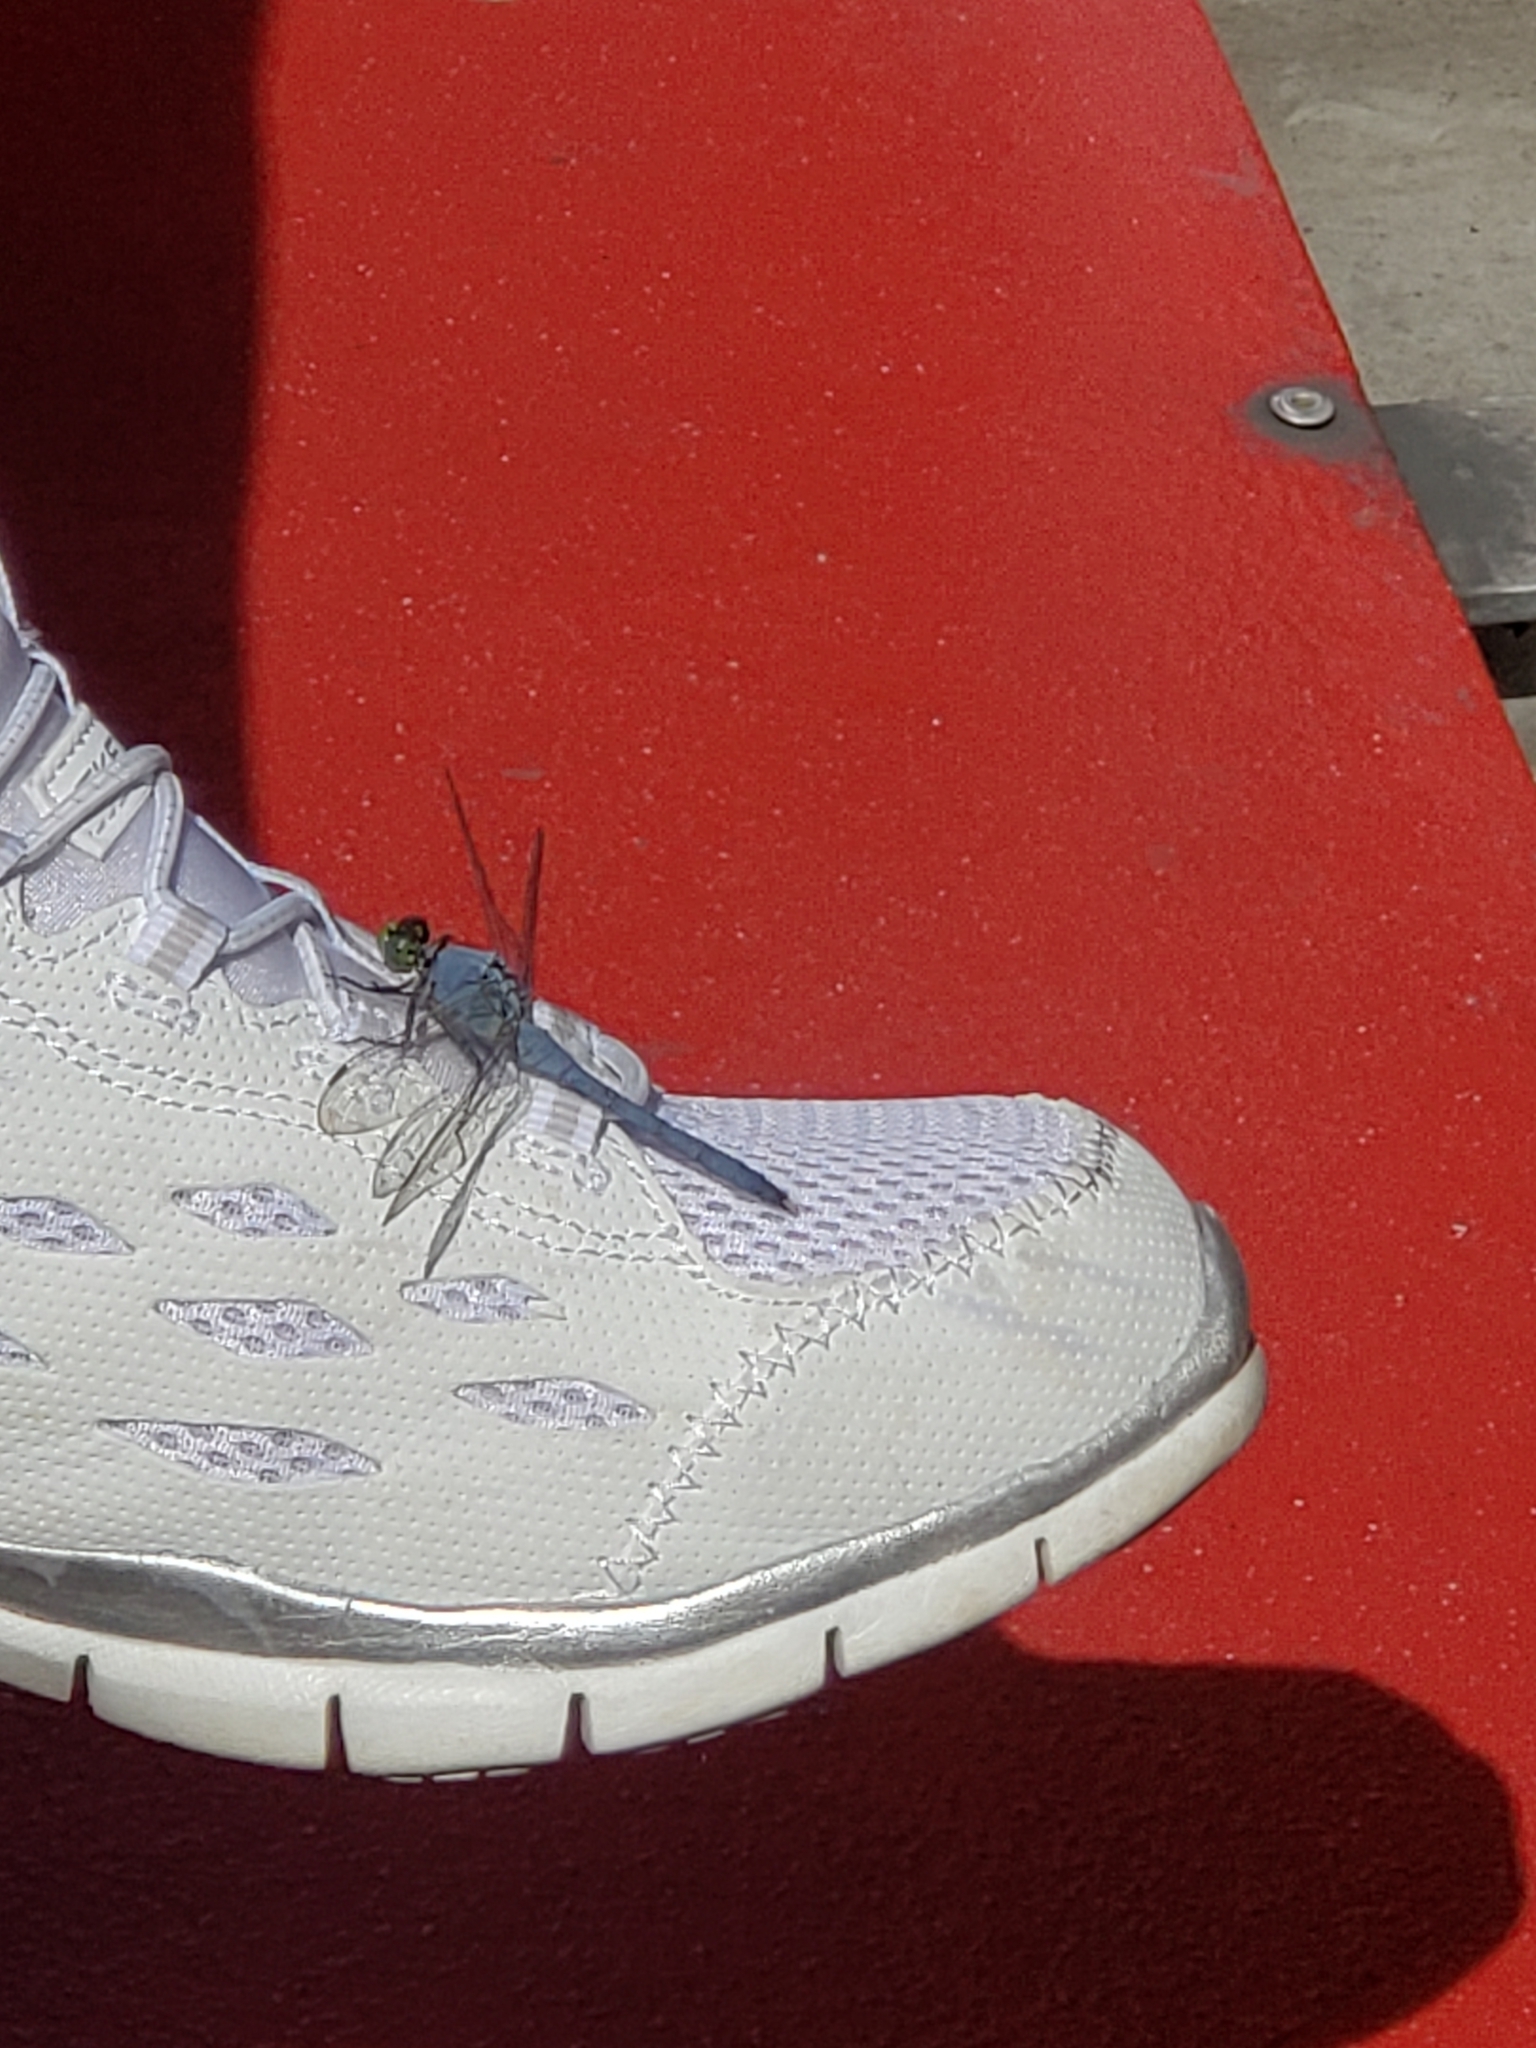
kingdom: Animalia
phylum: Arthropoda
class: Insecta
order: Odonata
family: Libellulidae
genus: Erythemis
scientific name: Erythemis simplicicollis
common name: Eastern pondhawk
